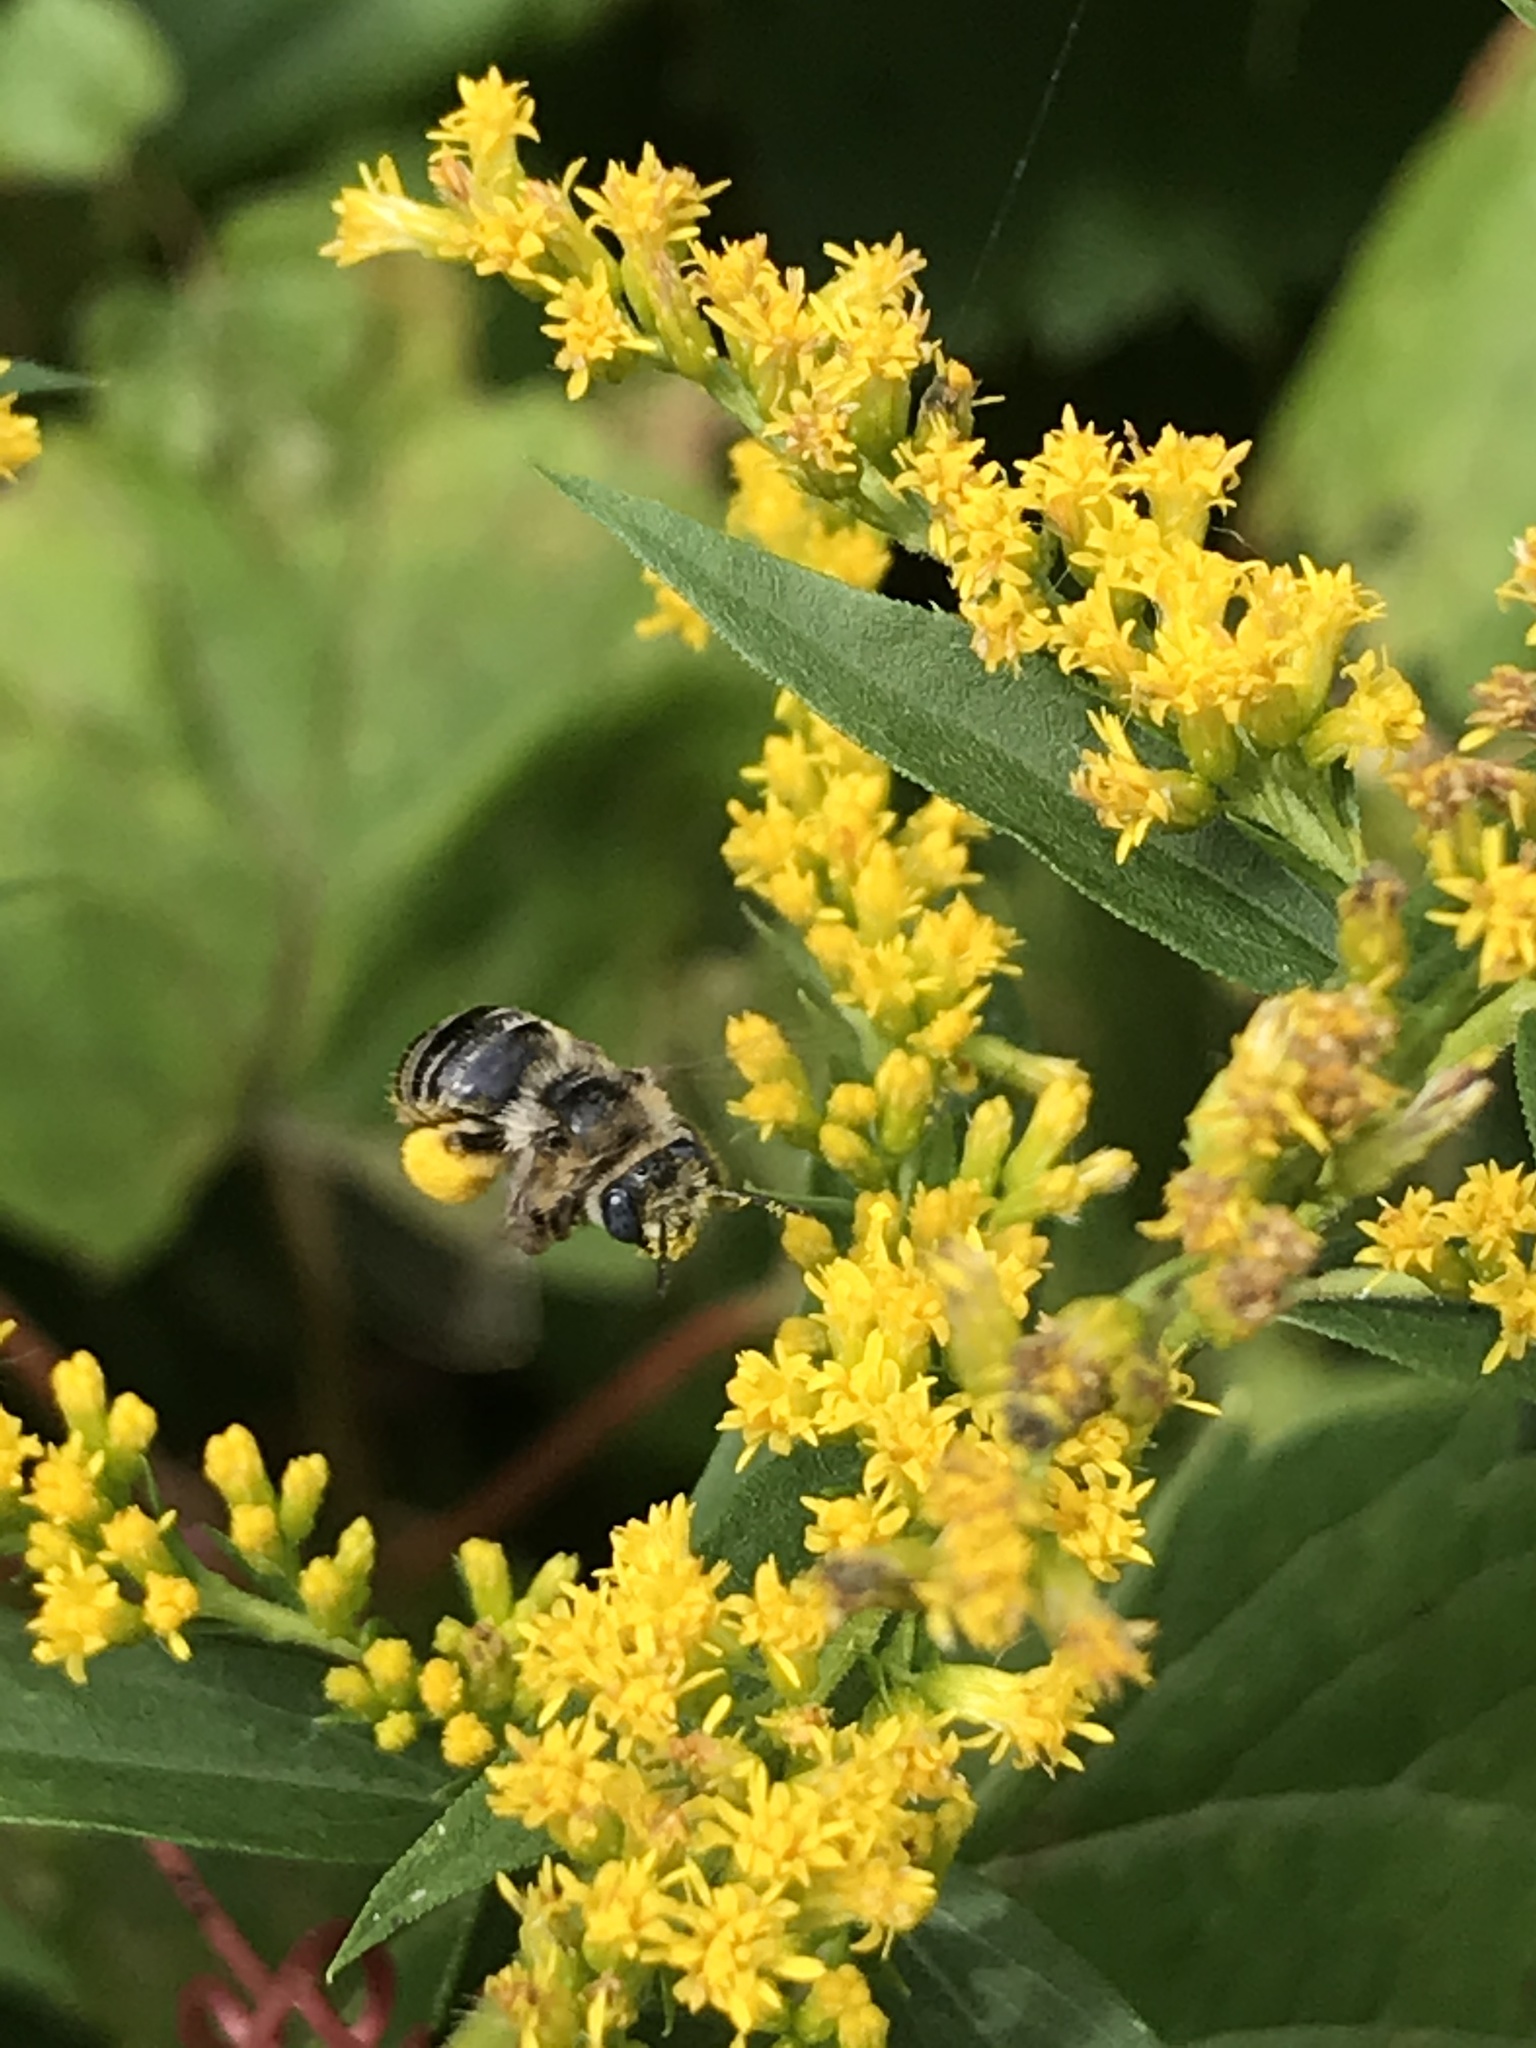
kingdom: Animalia
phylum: Arthropoda
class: Insecta
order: Hymenoptera
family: Apidae
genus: Melissodes
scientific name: Melissodes druriellus
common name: Drury's long-horned bee
